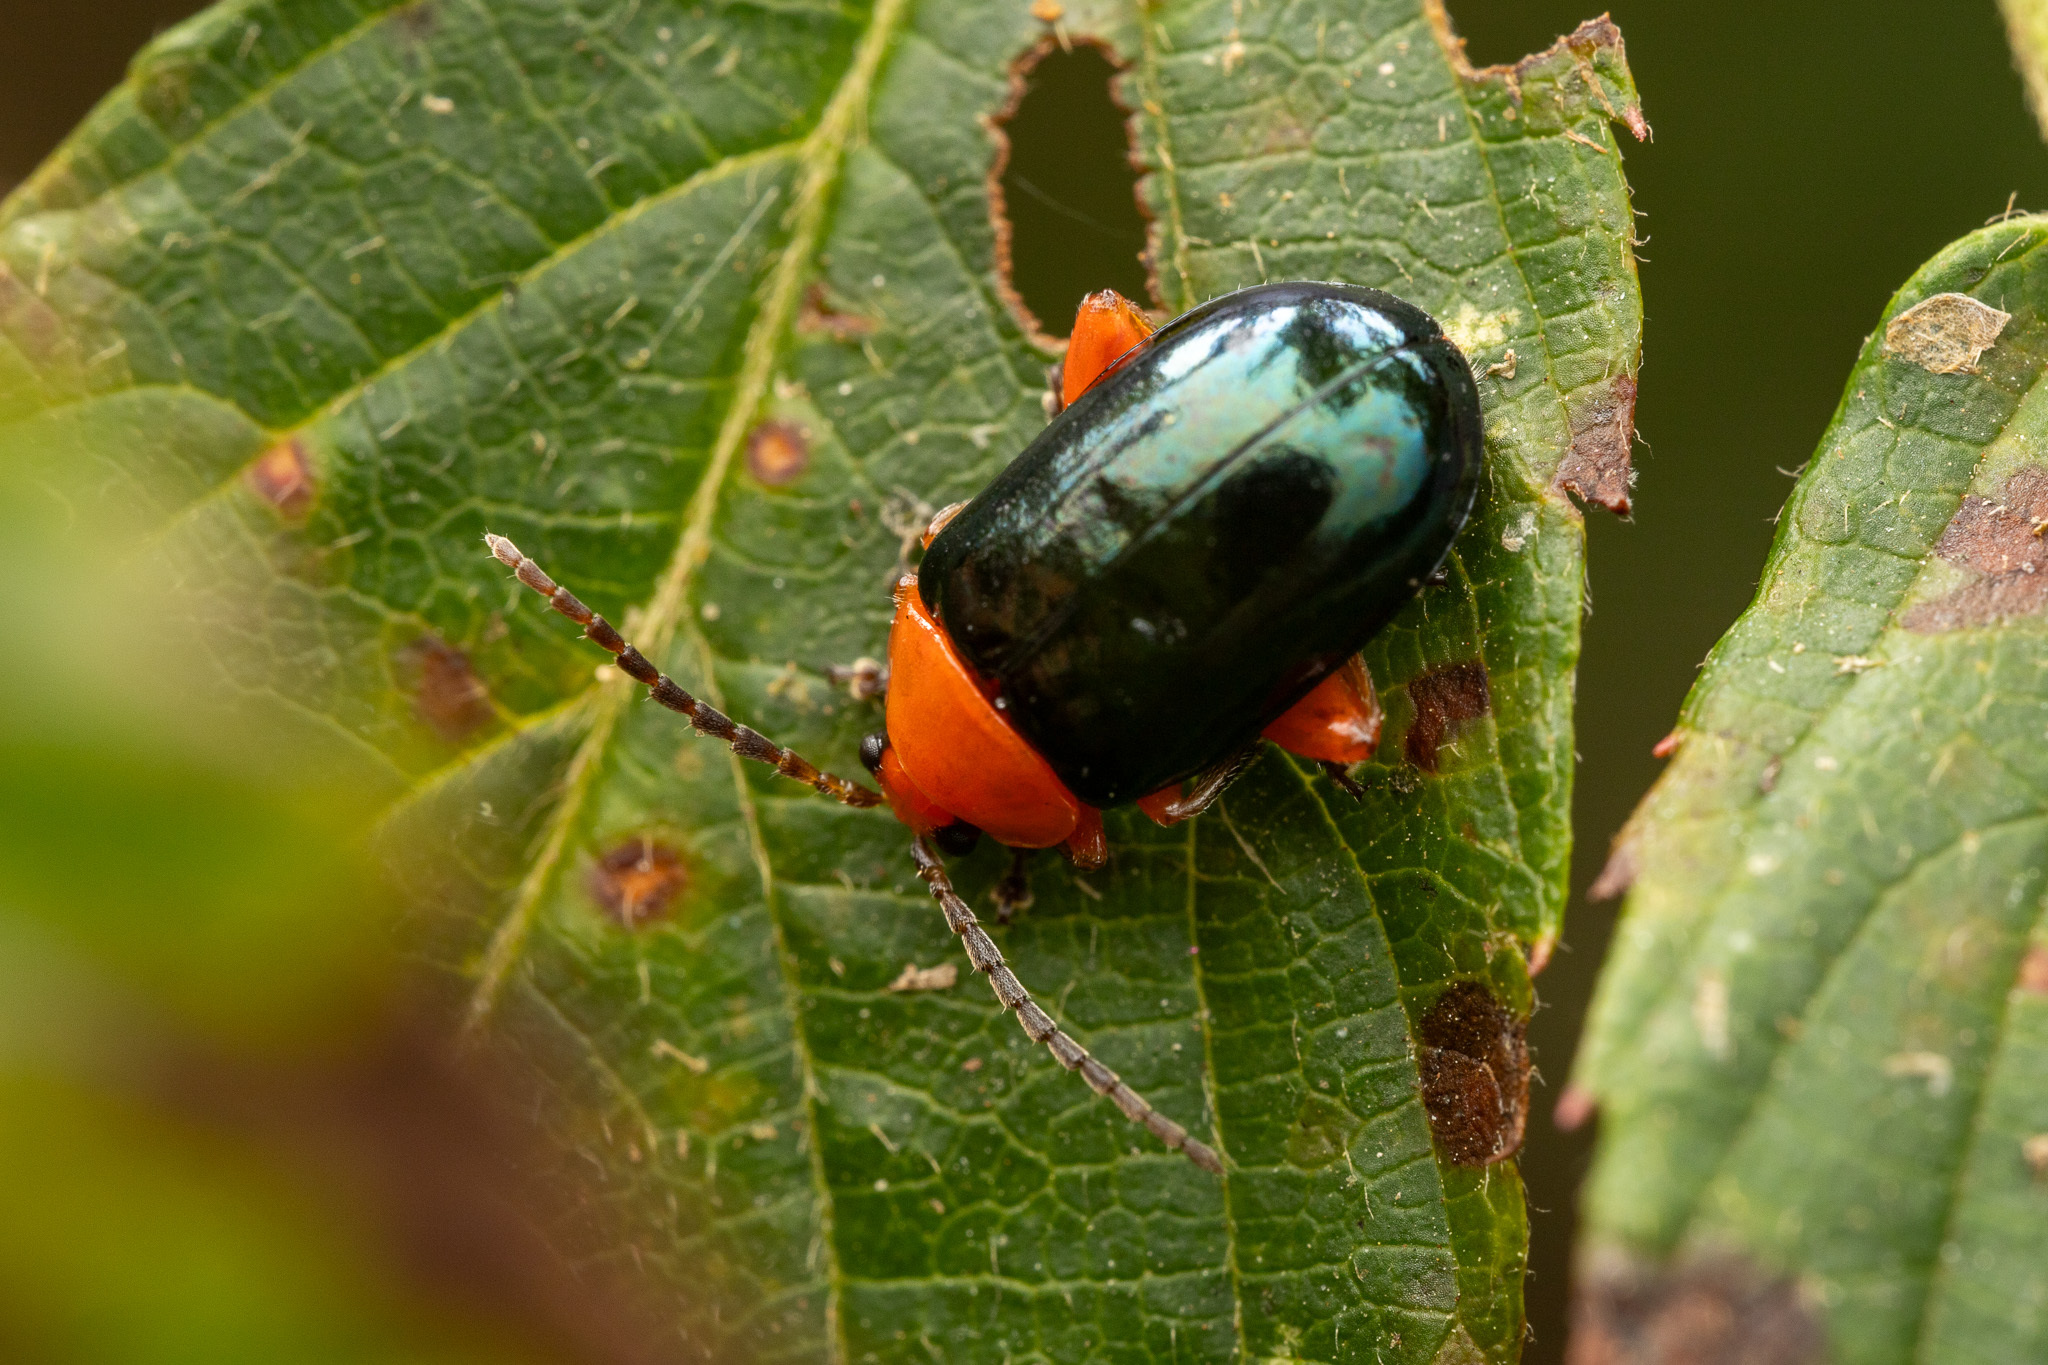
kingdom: Animalia
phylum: Arthropoda
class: Insecta
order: Coleoptera
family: Chrysomelidae
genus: Asphaera
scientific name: Asphaera lustrans
